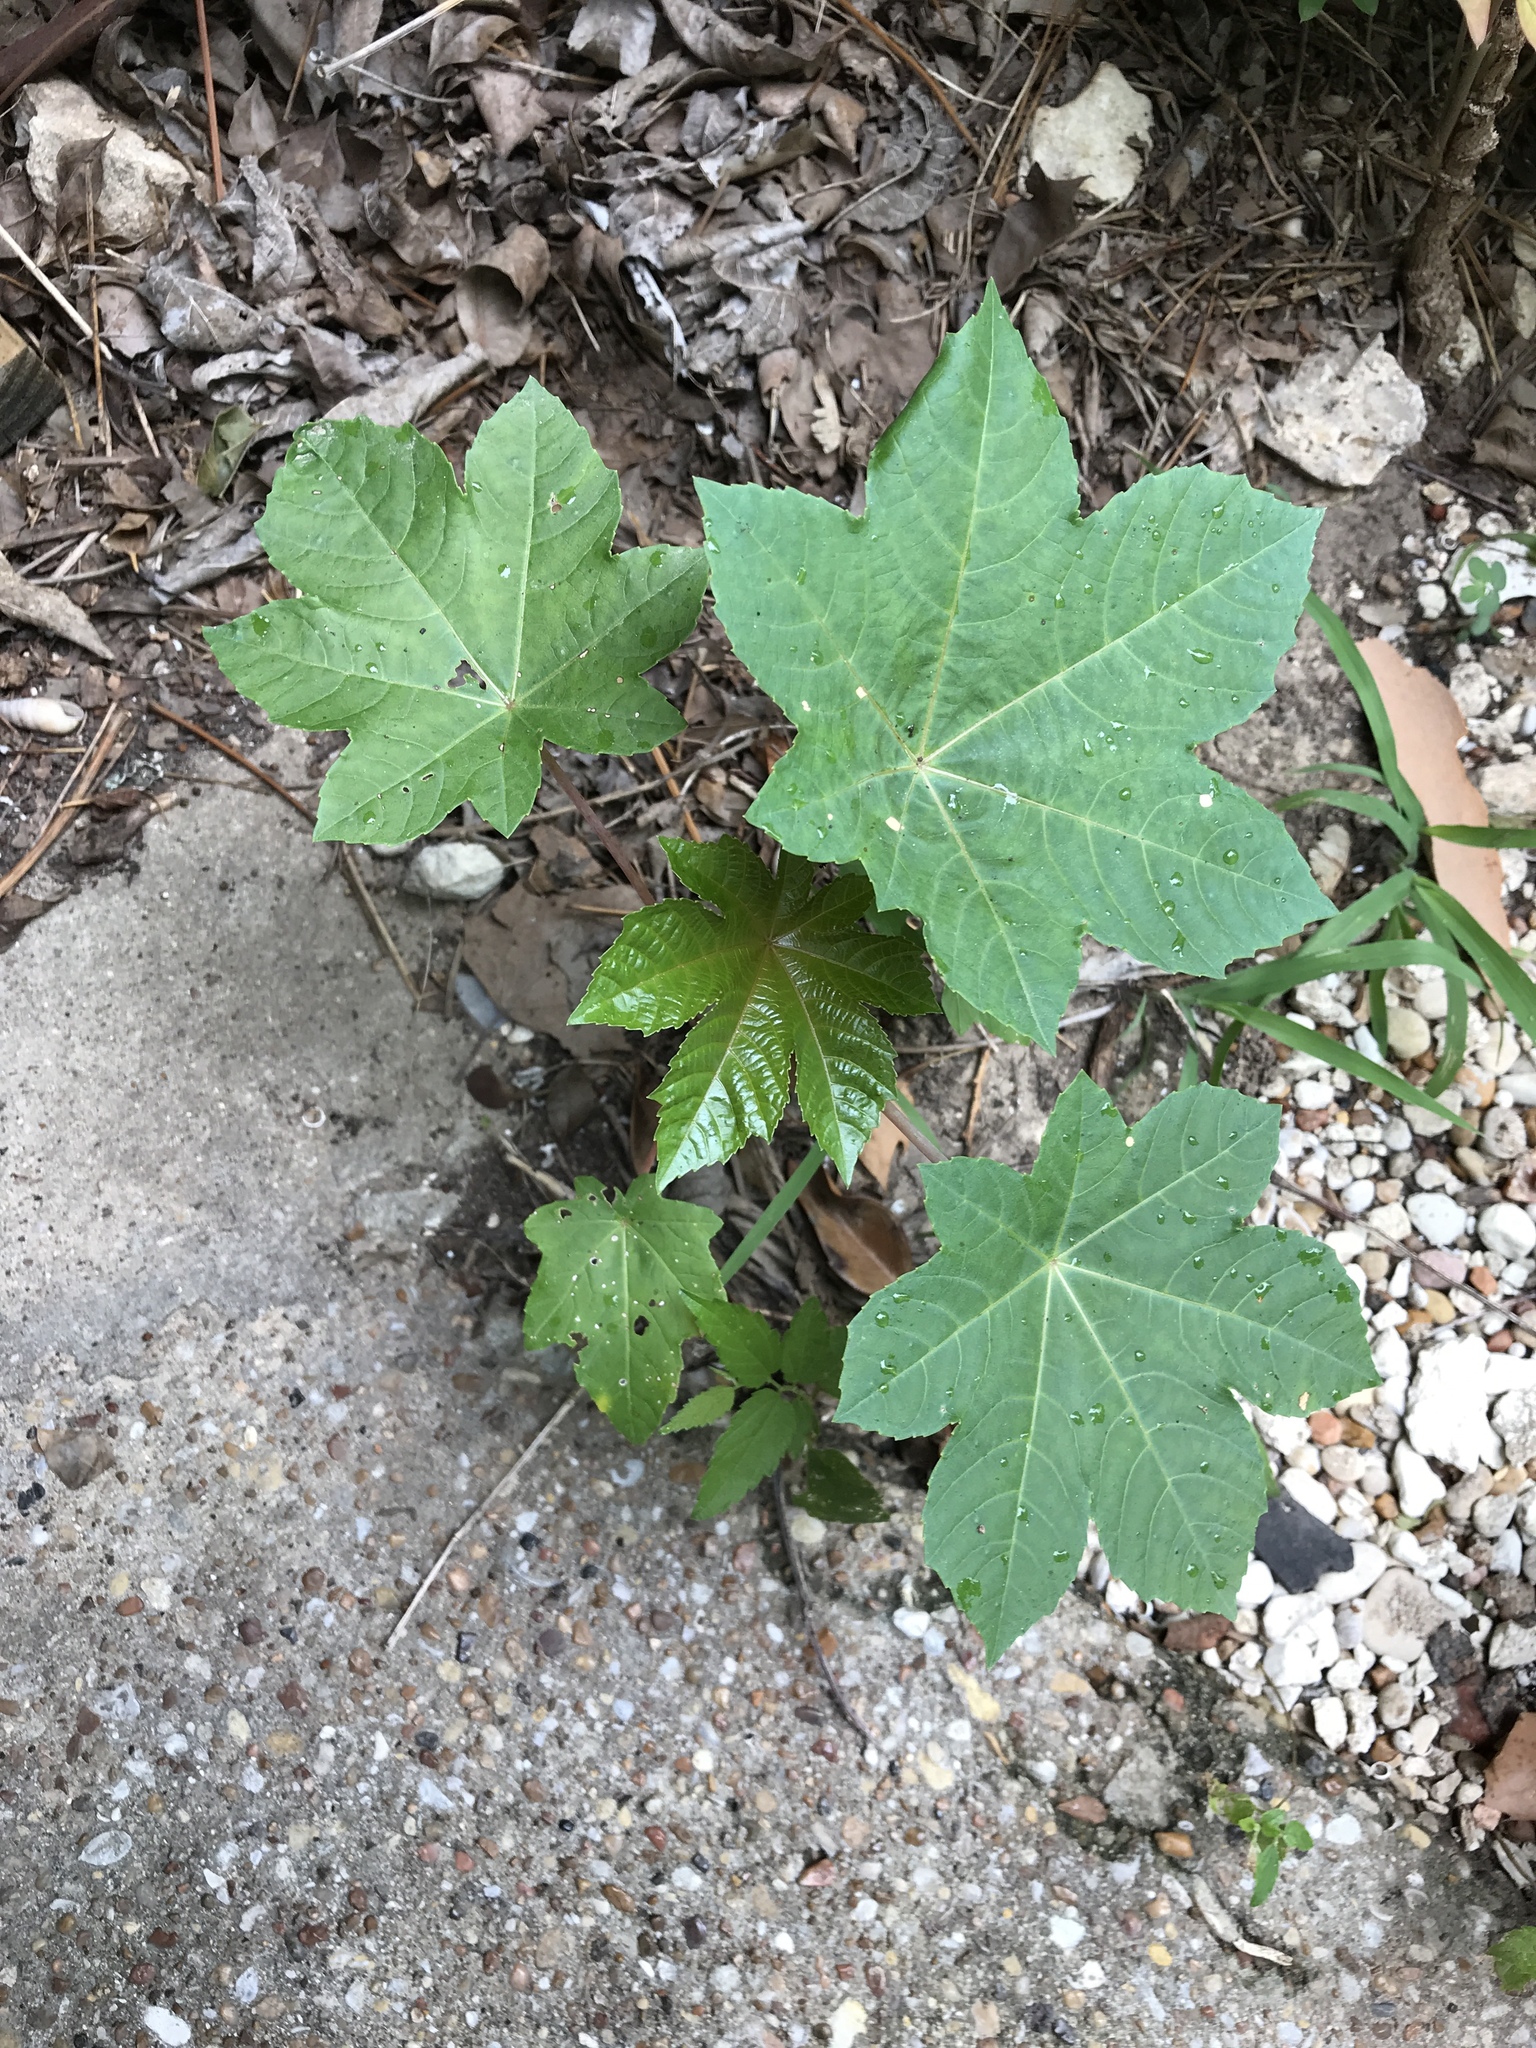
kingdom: Plantae
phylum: Tracheophyta
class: Magnoliopsida
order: Malpighiales
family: Euphorbiaceae
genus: Ricinus
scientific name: Ricinus communis
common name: Castor-oil-plant
